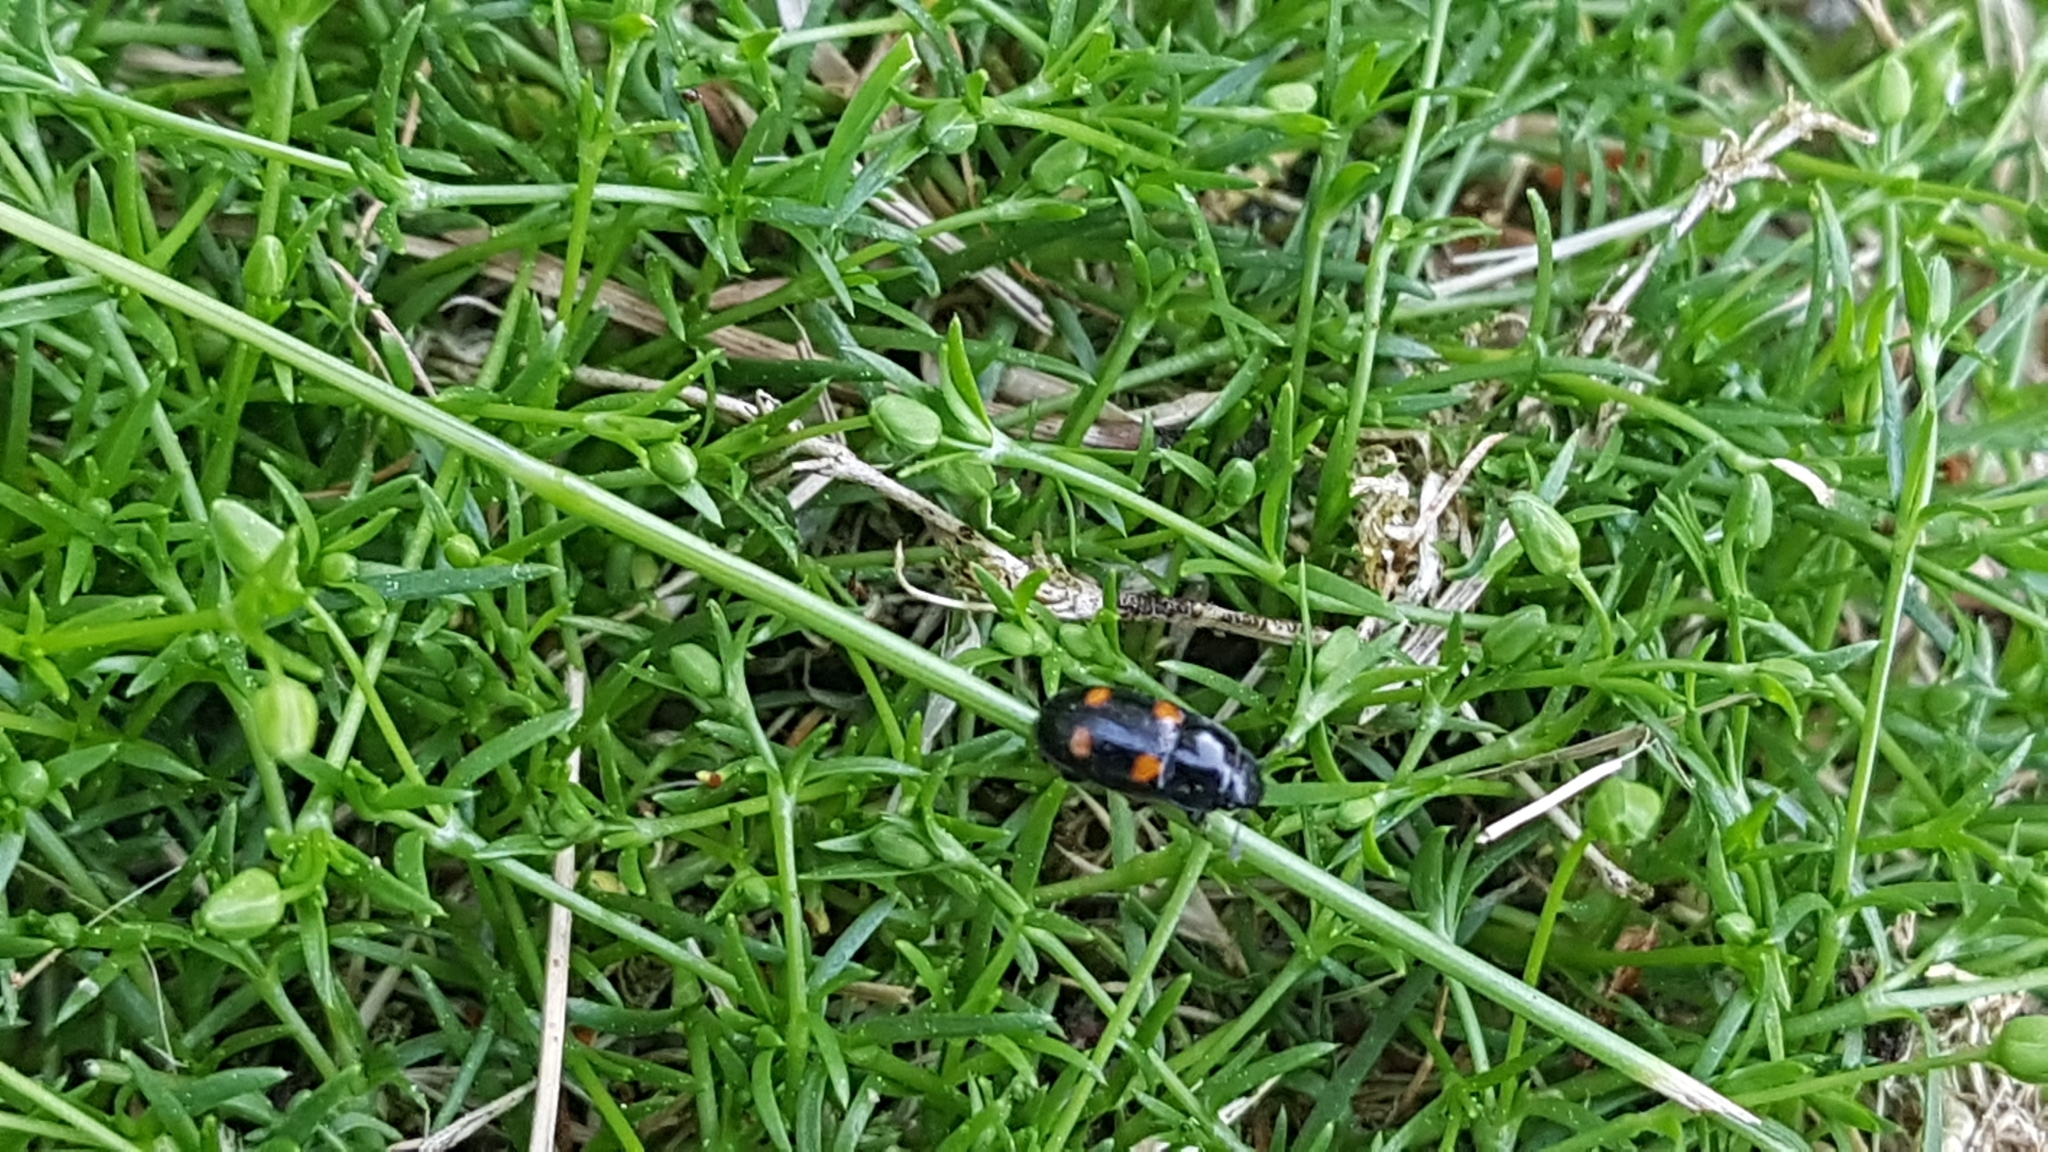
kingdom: Animalia
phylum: Arthropoda
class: Insecta
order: Coleoptera
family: Nitidulidae
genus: Glischrochilus
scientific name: Glischrochilus hortensis
